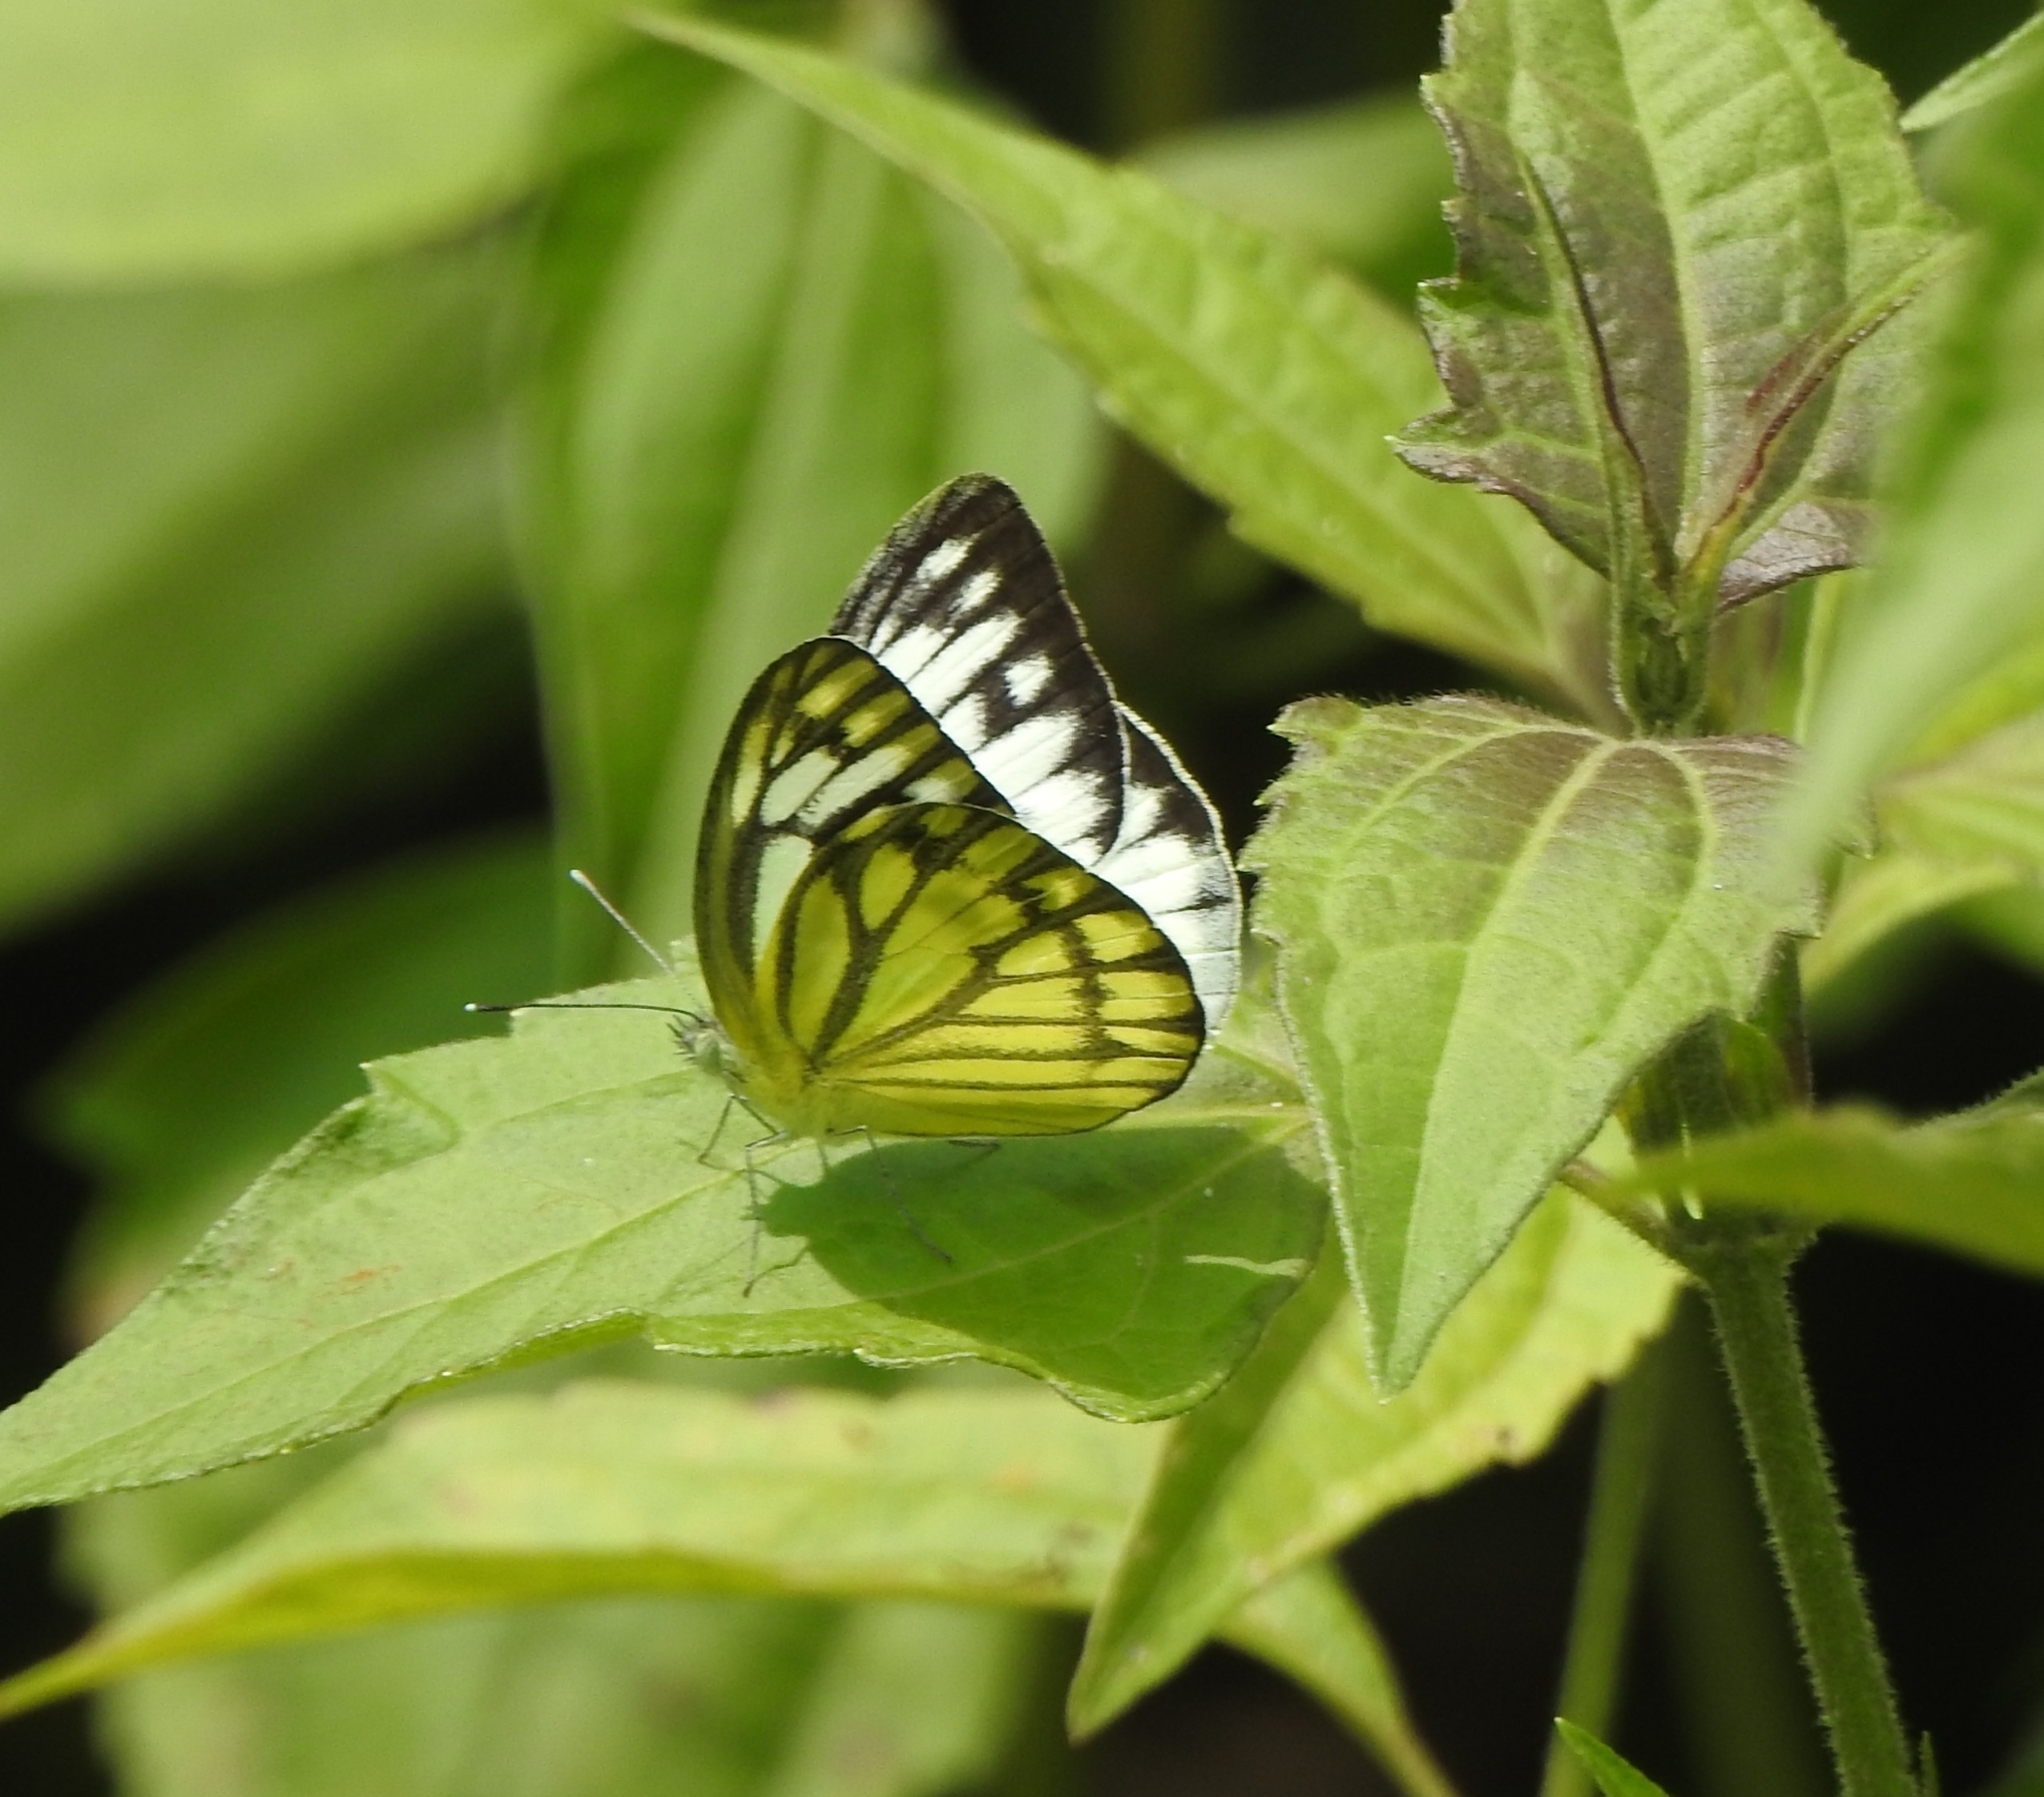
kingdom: Animalia
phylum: Arthropoda
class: Insecta
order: Lepidoptera
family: Pieridae
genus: Cepora
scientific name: Cepora nerissa
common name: Common gull
